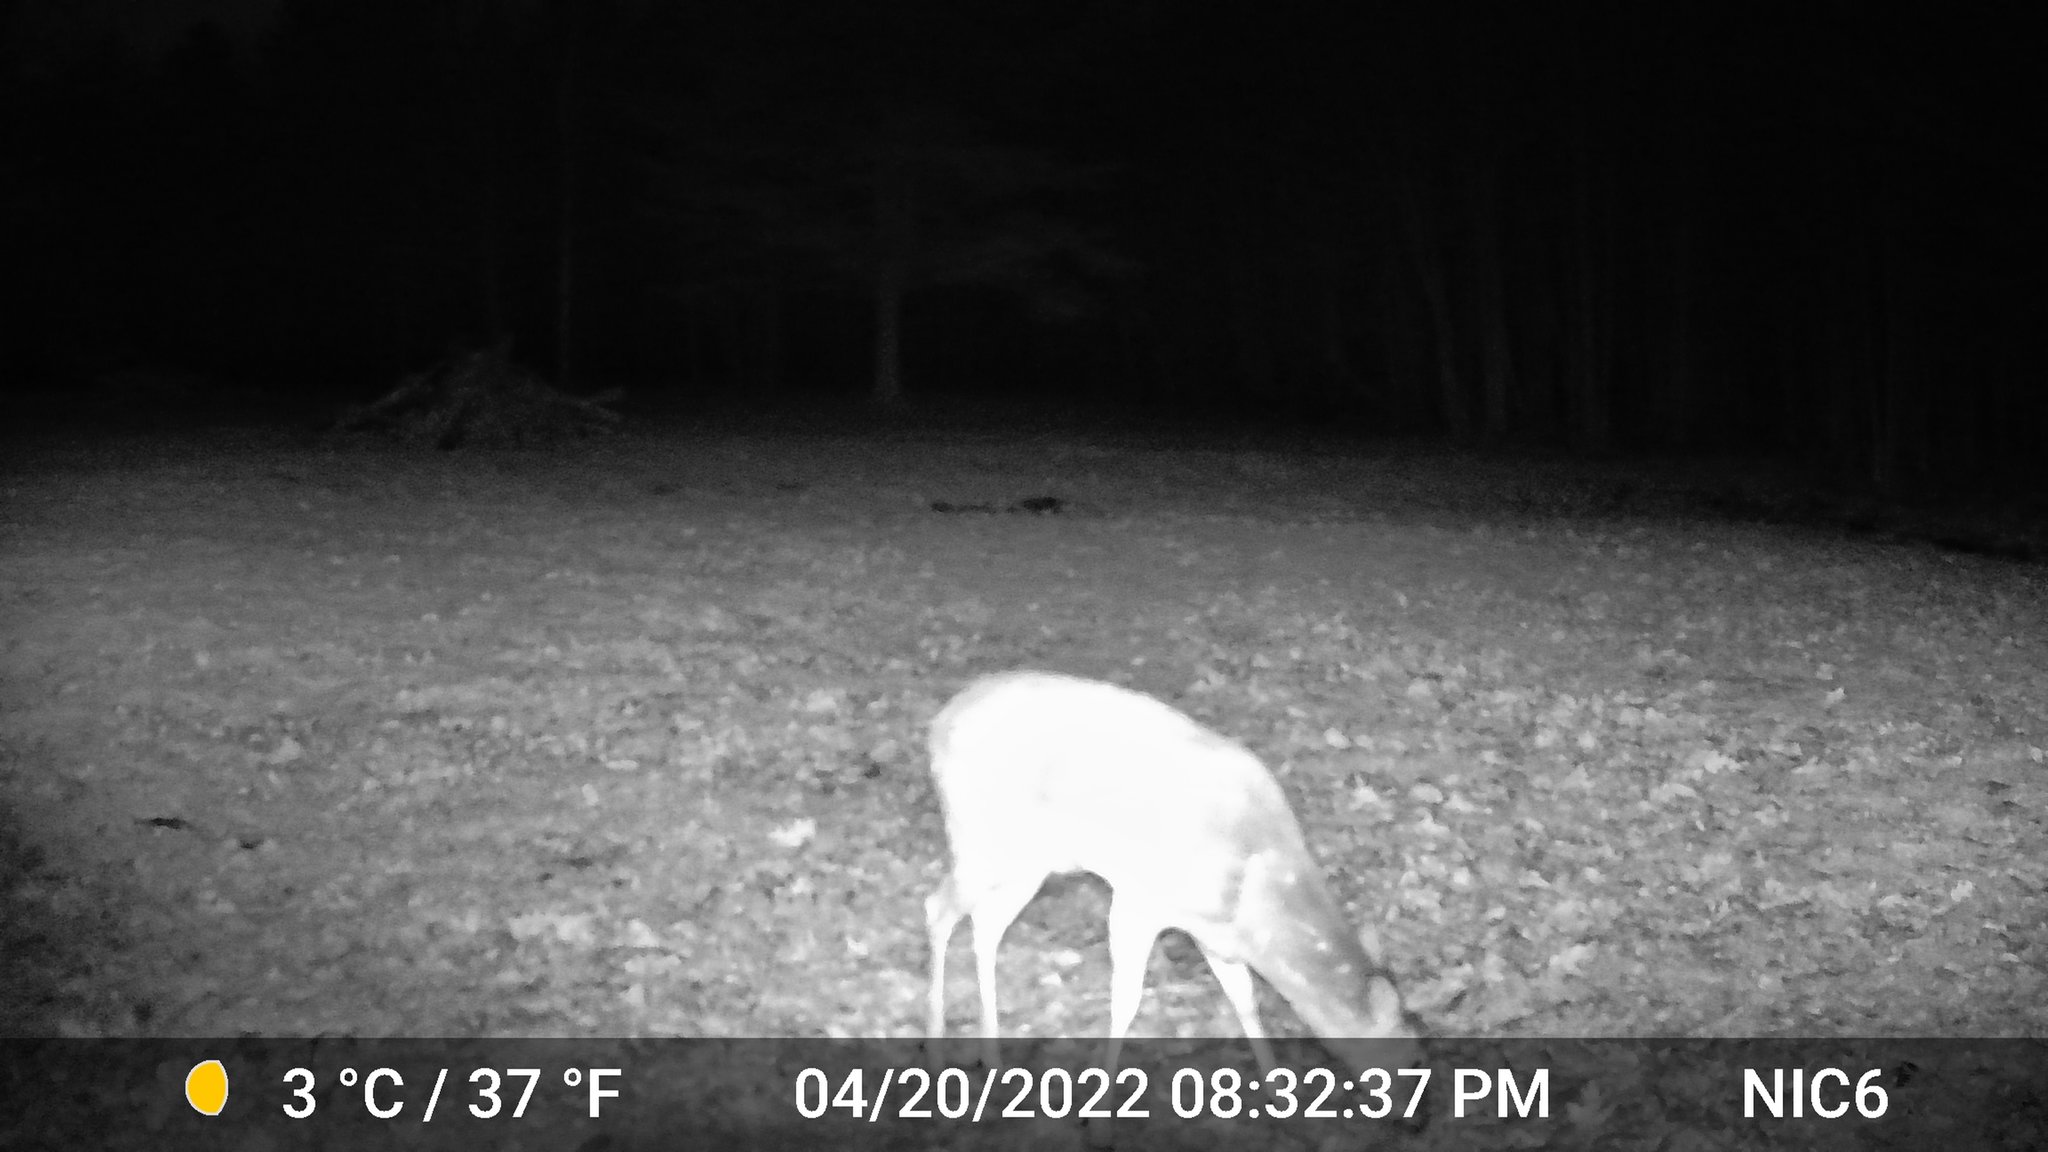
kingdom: Animalia
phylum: Chordata
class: Mammalia
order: Artiodactyla
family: Cervidae
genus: Odocoileus
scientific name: Odocoileus virginianus
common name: White-tailed deer
